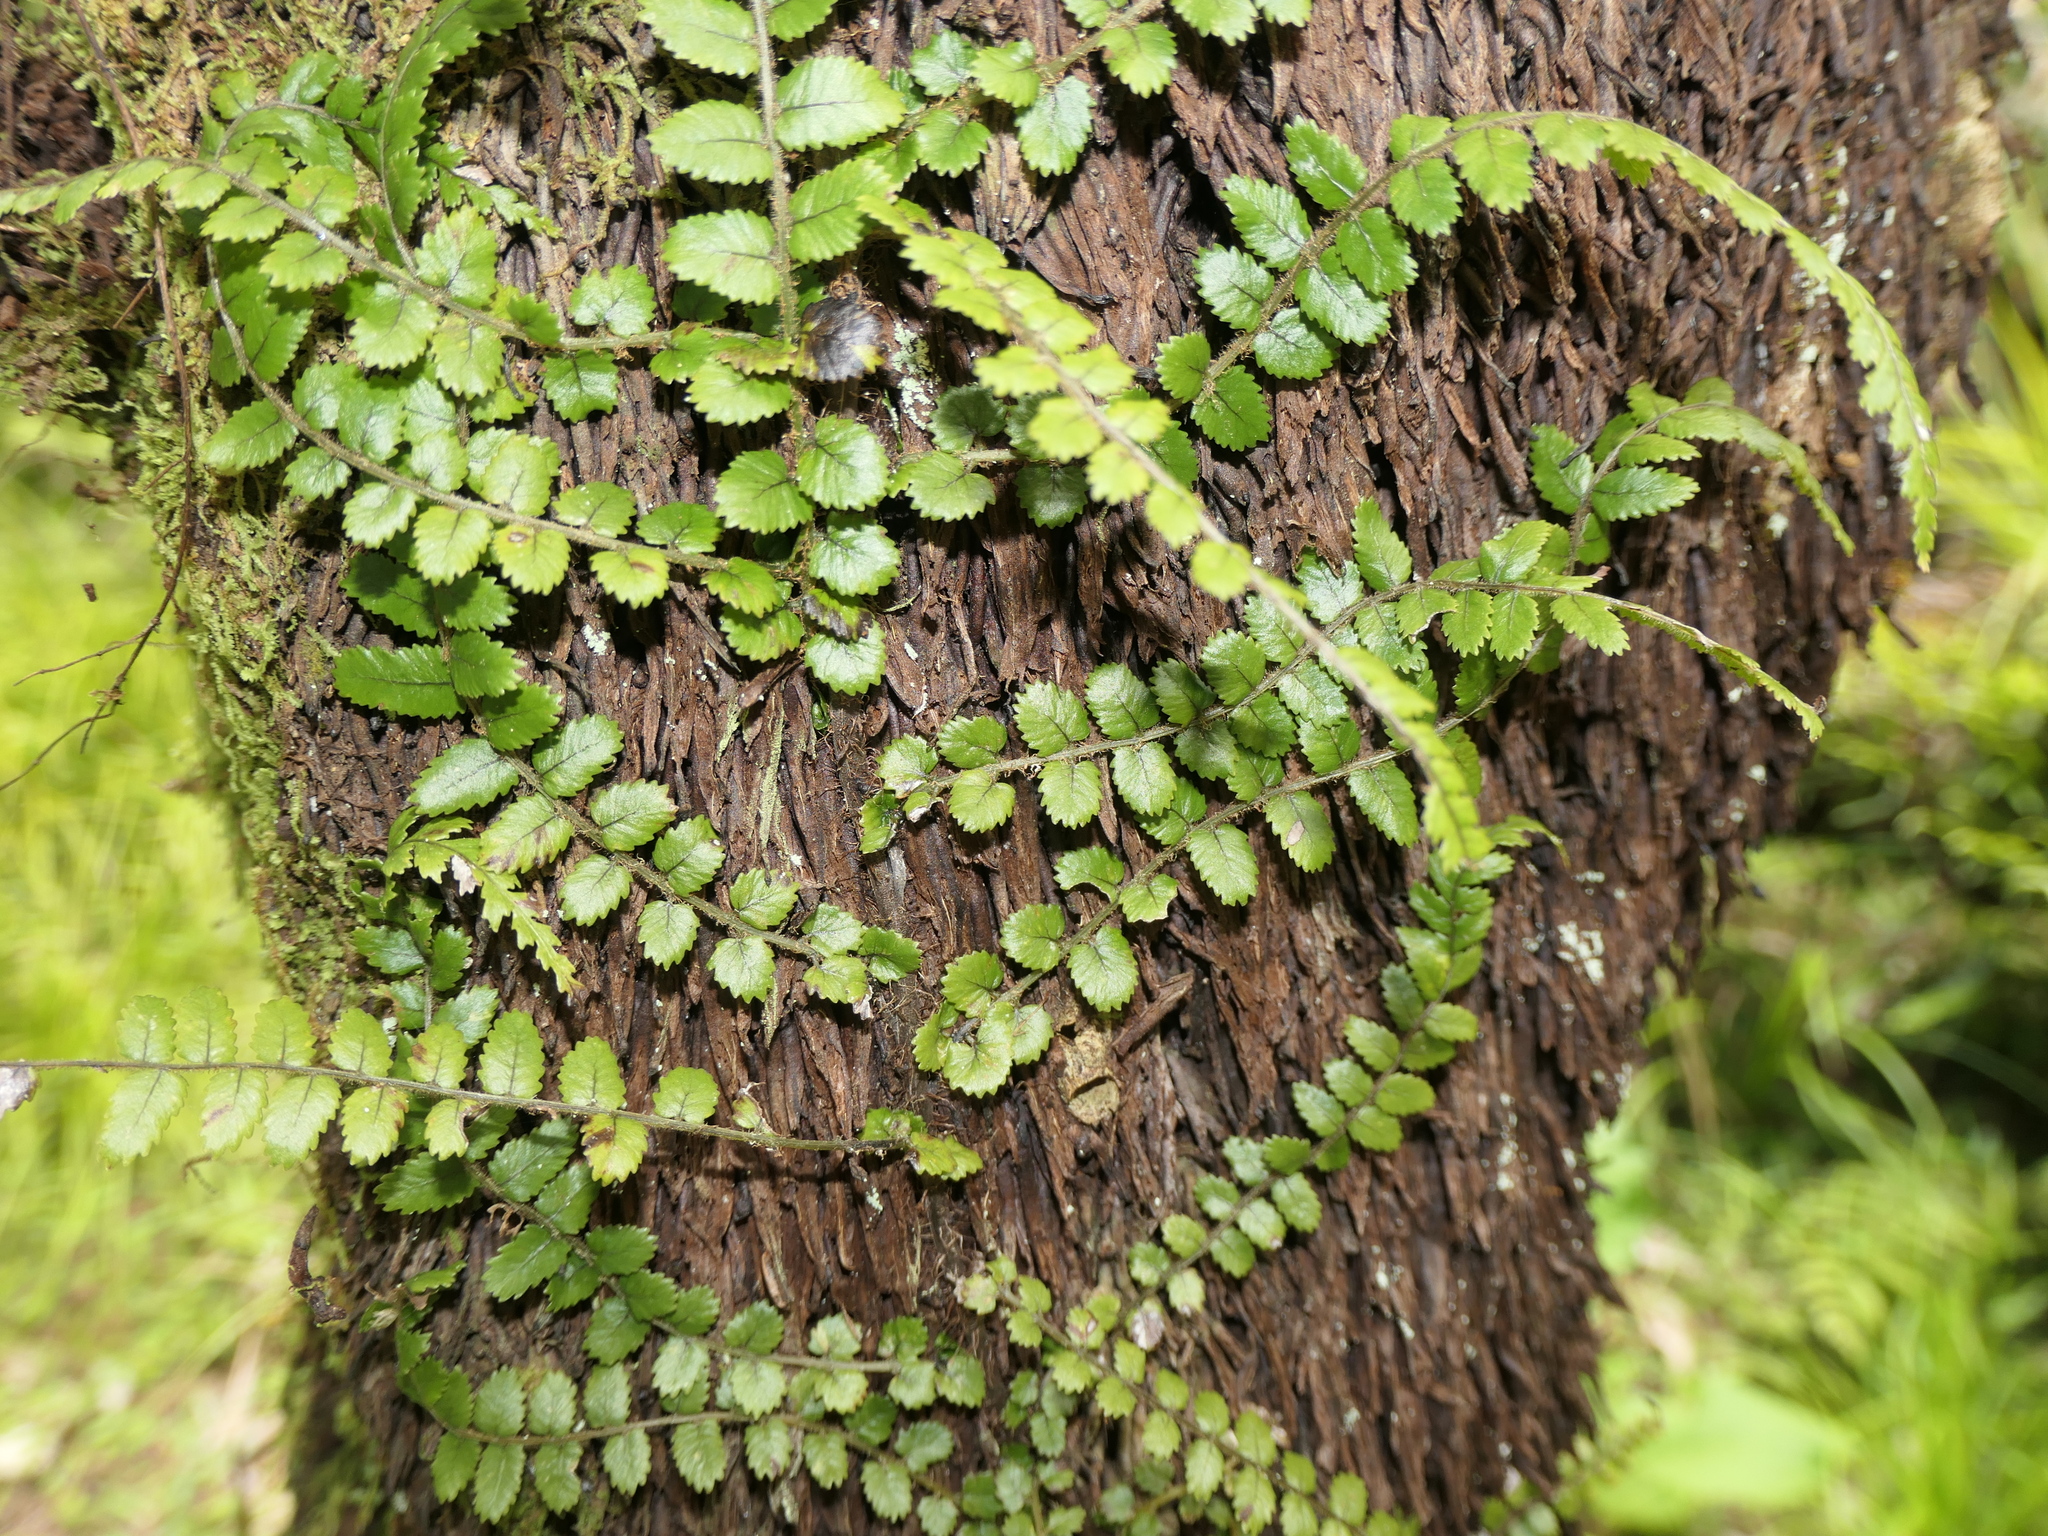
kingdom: Plantae
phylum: Tracheophyta
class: Polypodiopsida
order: Polypodiales
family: Blechnaceae
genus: Icarus
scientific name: Icarus filiformis
